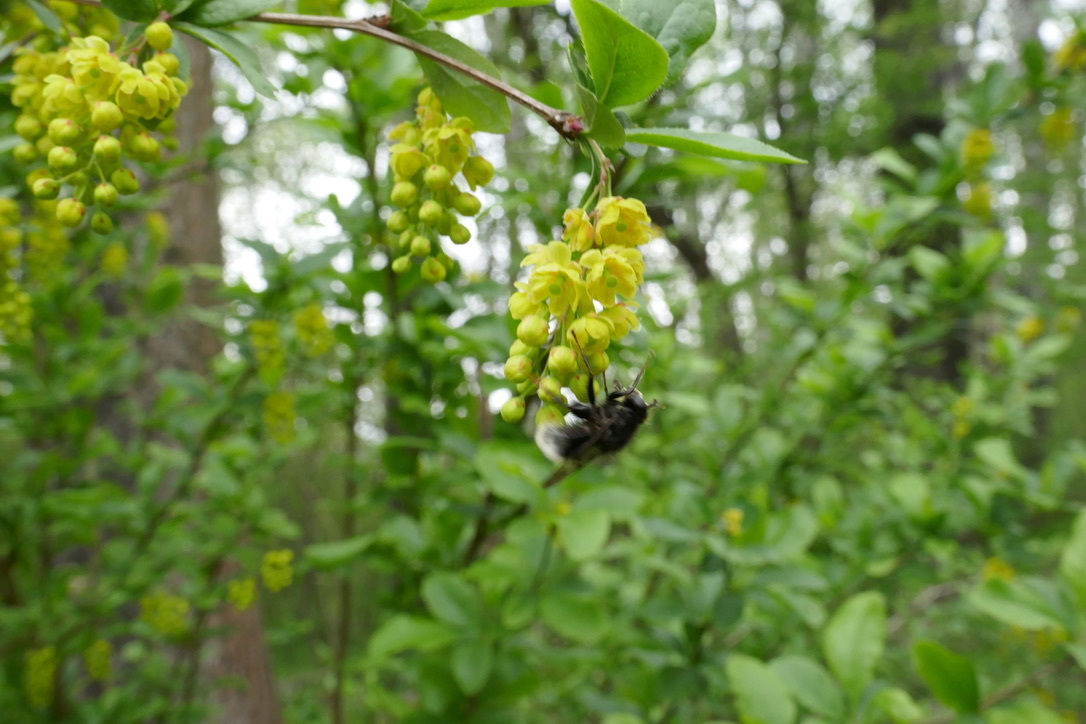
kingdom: Animalia
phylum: Arthropoda
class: Insecta
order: Diptera
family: Syrphidae
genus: Criorhina
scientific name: Criorhina ranunculi
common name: Large bear hoverfly
